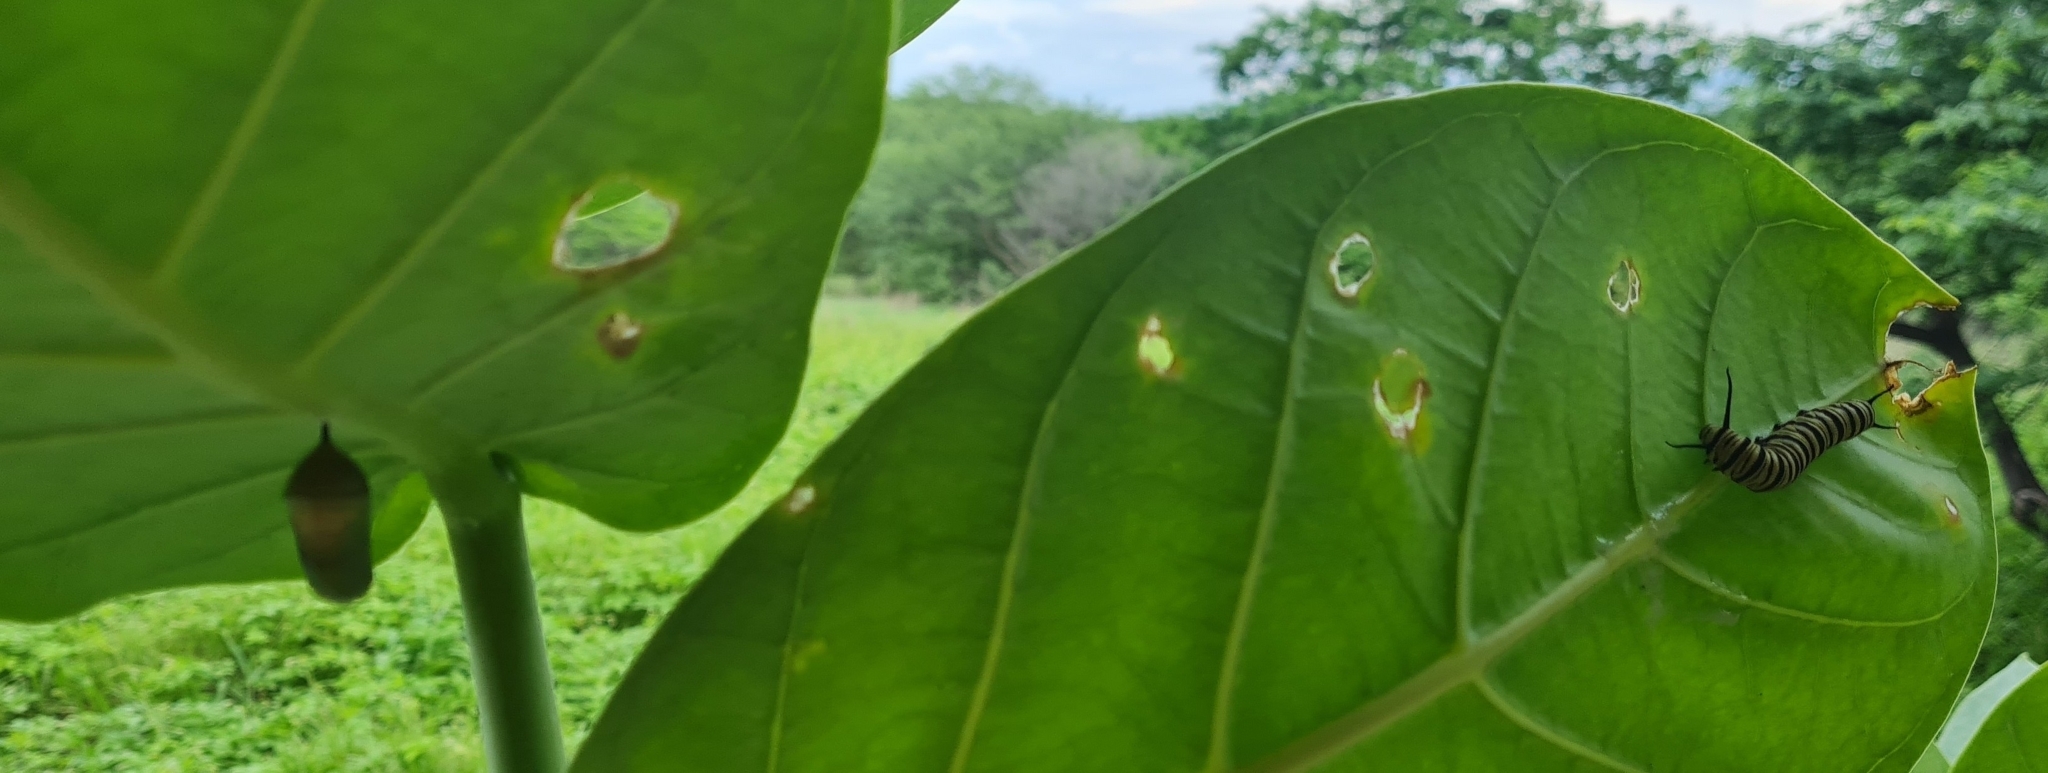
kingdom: Animalia
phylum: Arthropoda
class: Insecta
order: Lepidoptera
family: Nymphalidae
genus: Danaus
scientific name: Danaus erippus
